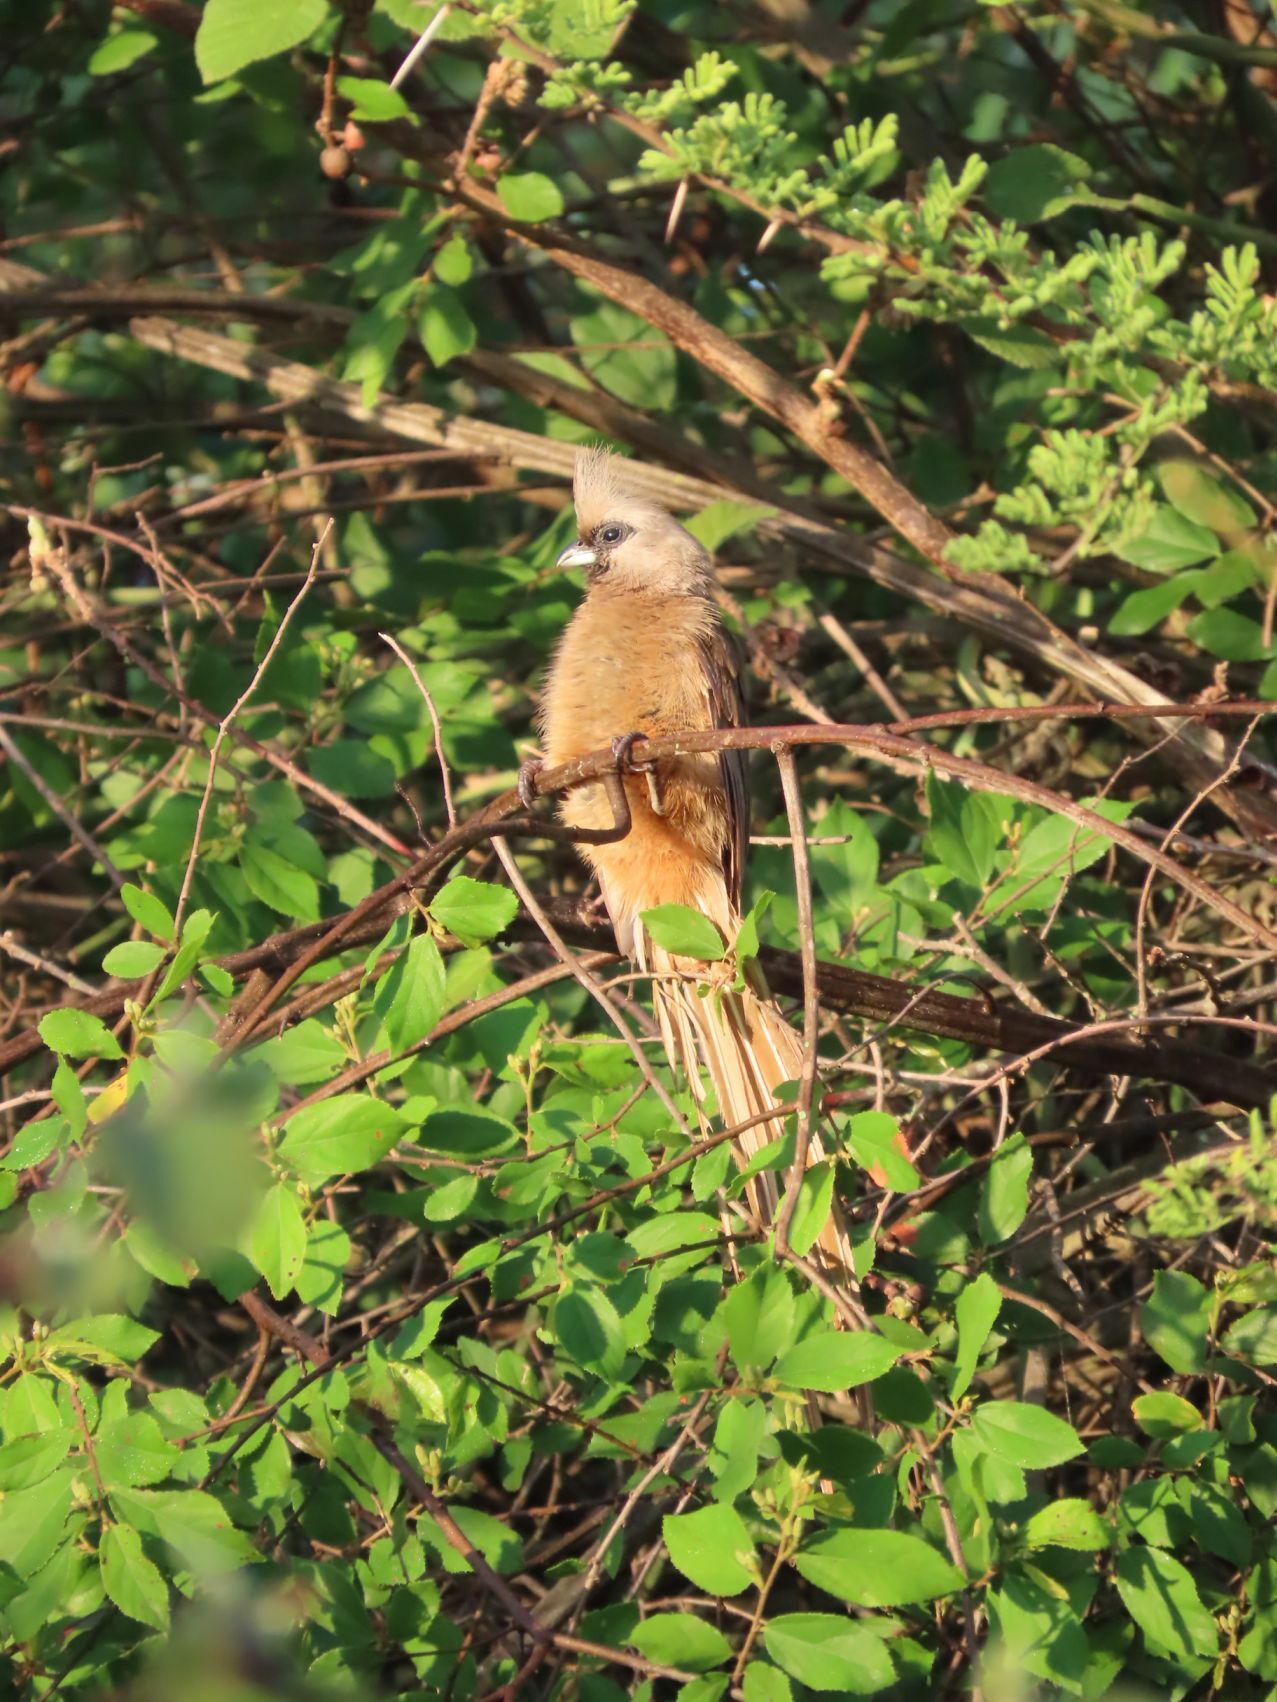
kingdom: Animalia
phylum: Chordata
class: Aves
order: Coliiformes
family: Coliidae
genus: Colius
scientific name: Colius striatus
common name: Speckled mousebird
